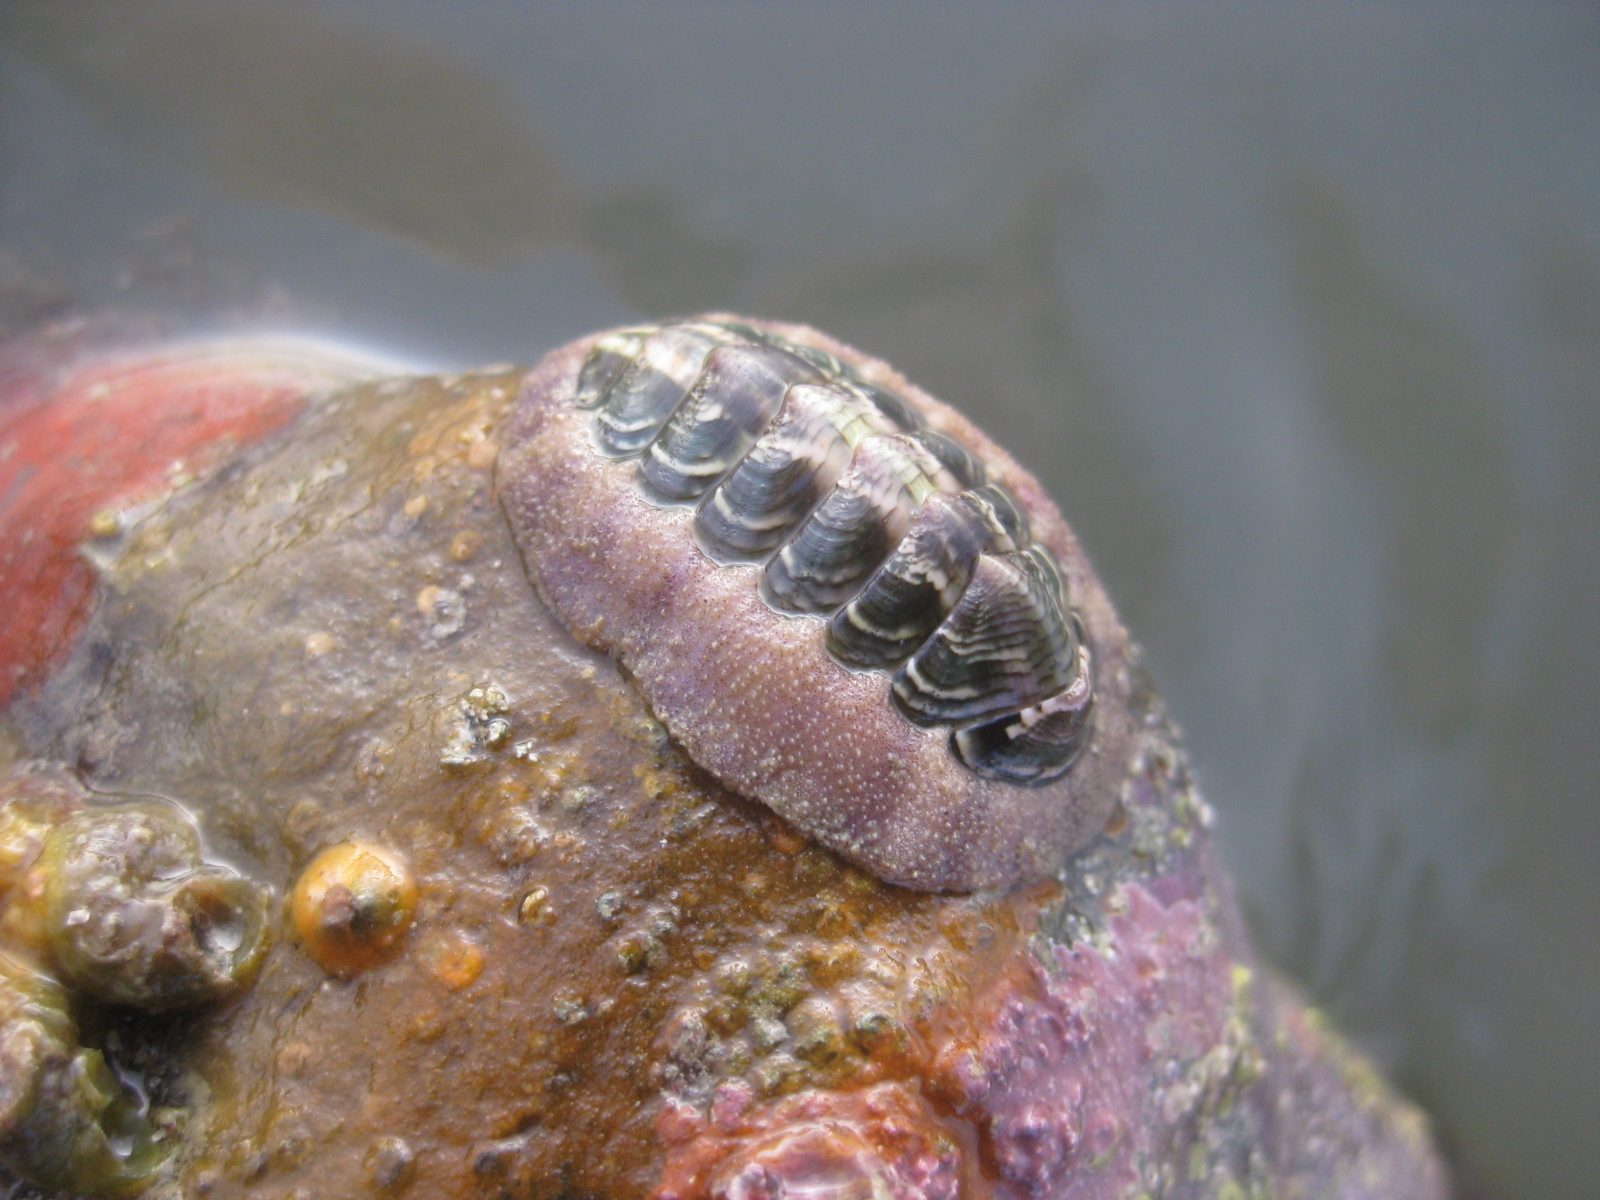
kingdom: Animalia
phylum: Mollusca
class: Polyplacophora
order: Chitonida
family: Chitonidae
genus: Onithochiton
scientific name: Onithochiton neglectus
